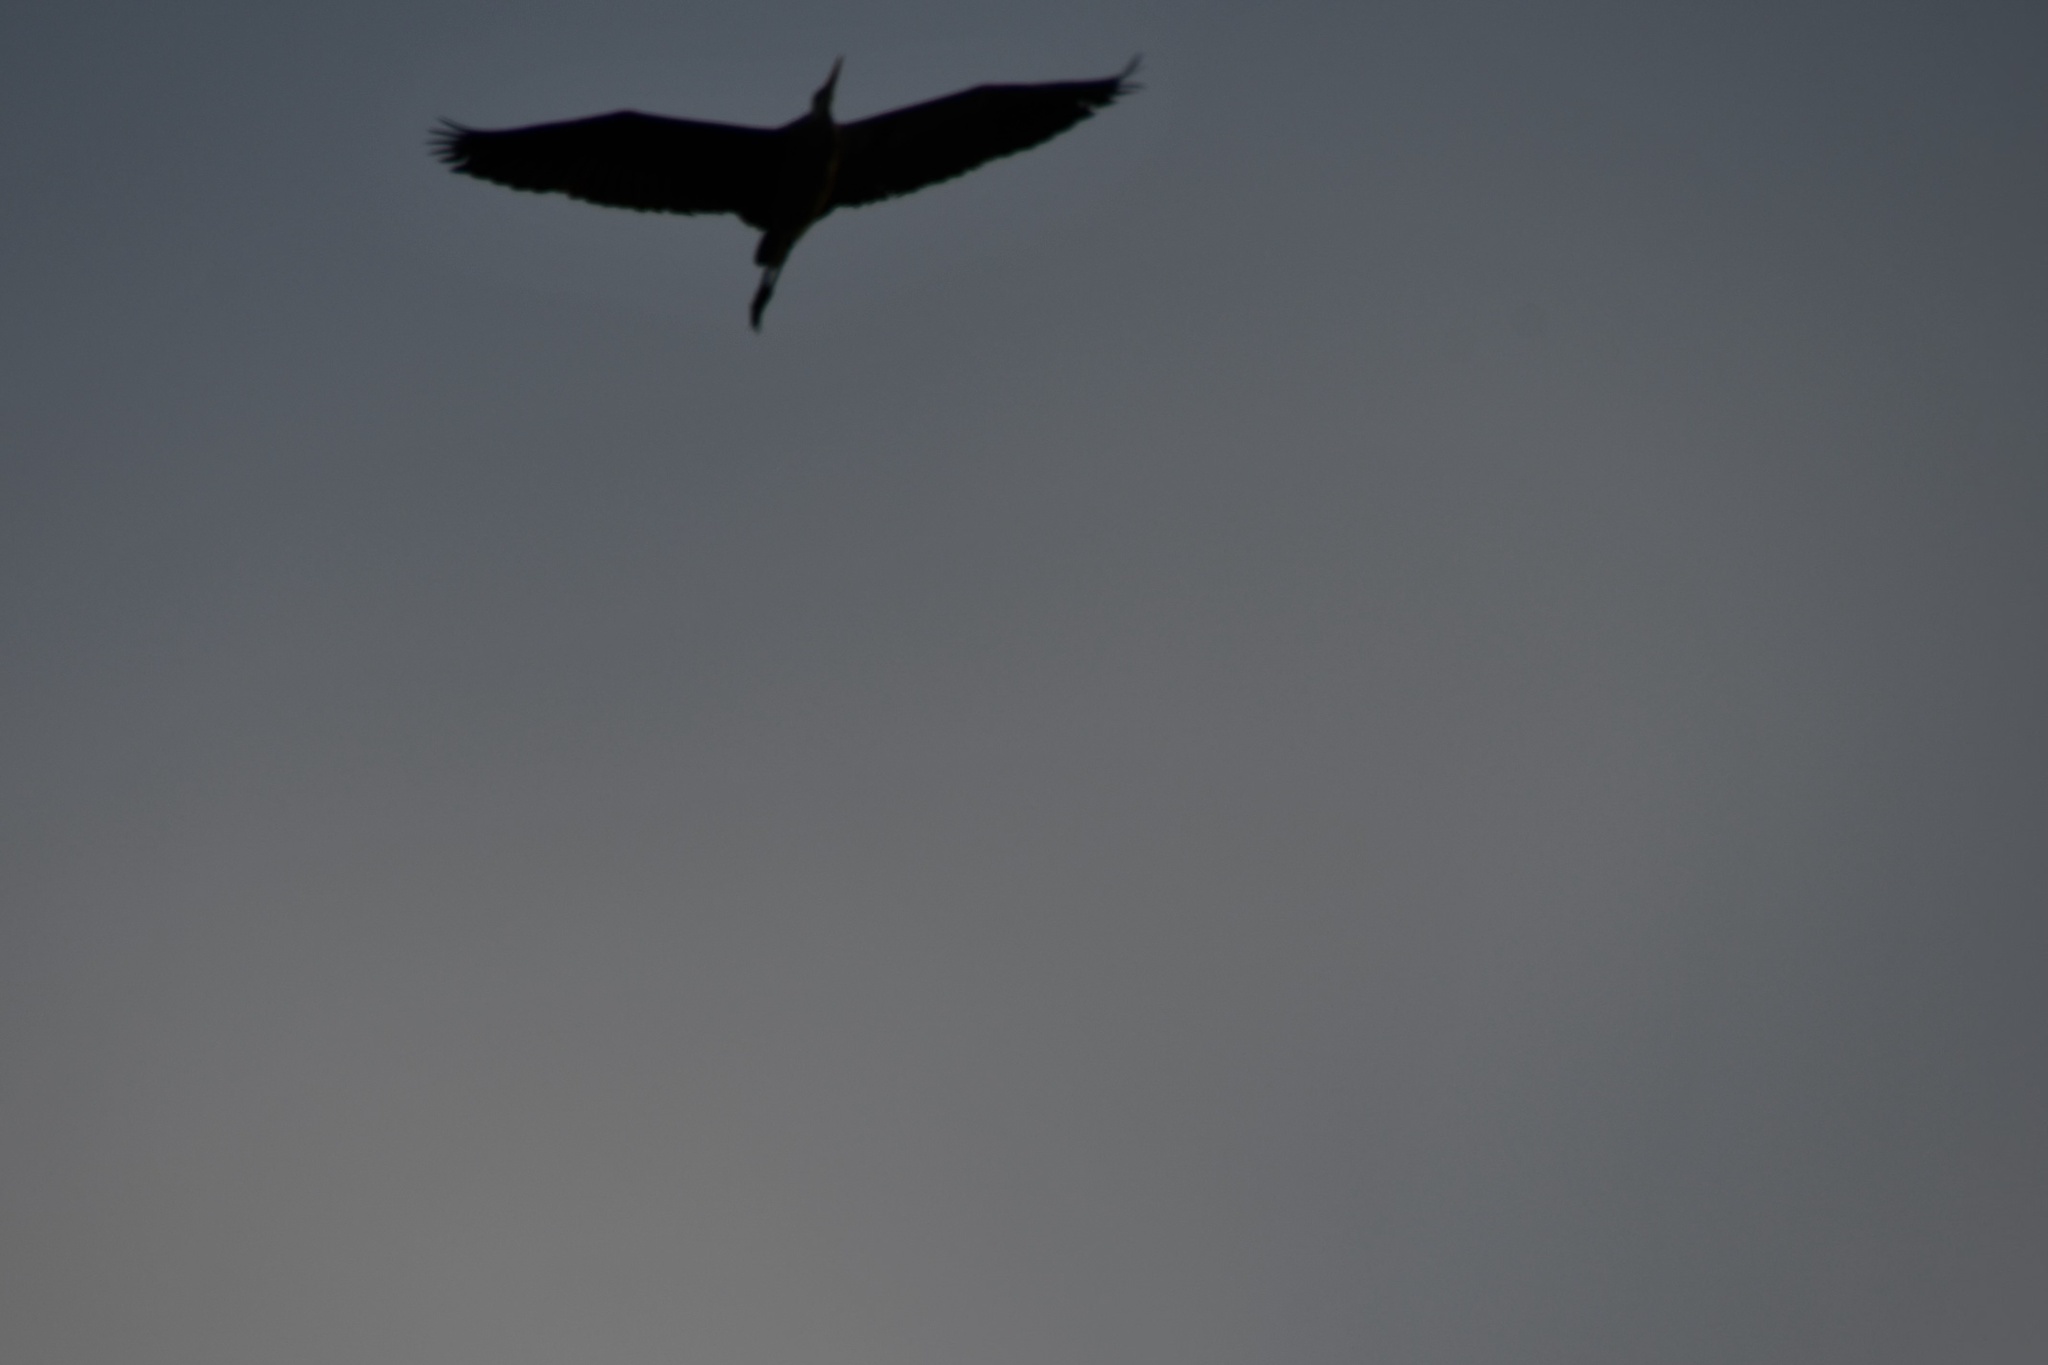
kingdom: Animalia
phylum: Chordata
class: Aves
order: Pelecaniformes
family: Ardeidae
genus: Ardea
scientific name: Ardea herodias
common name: Great blue heron
